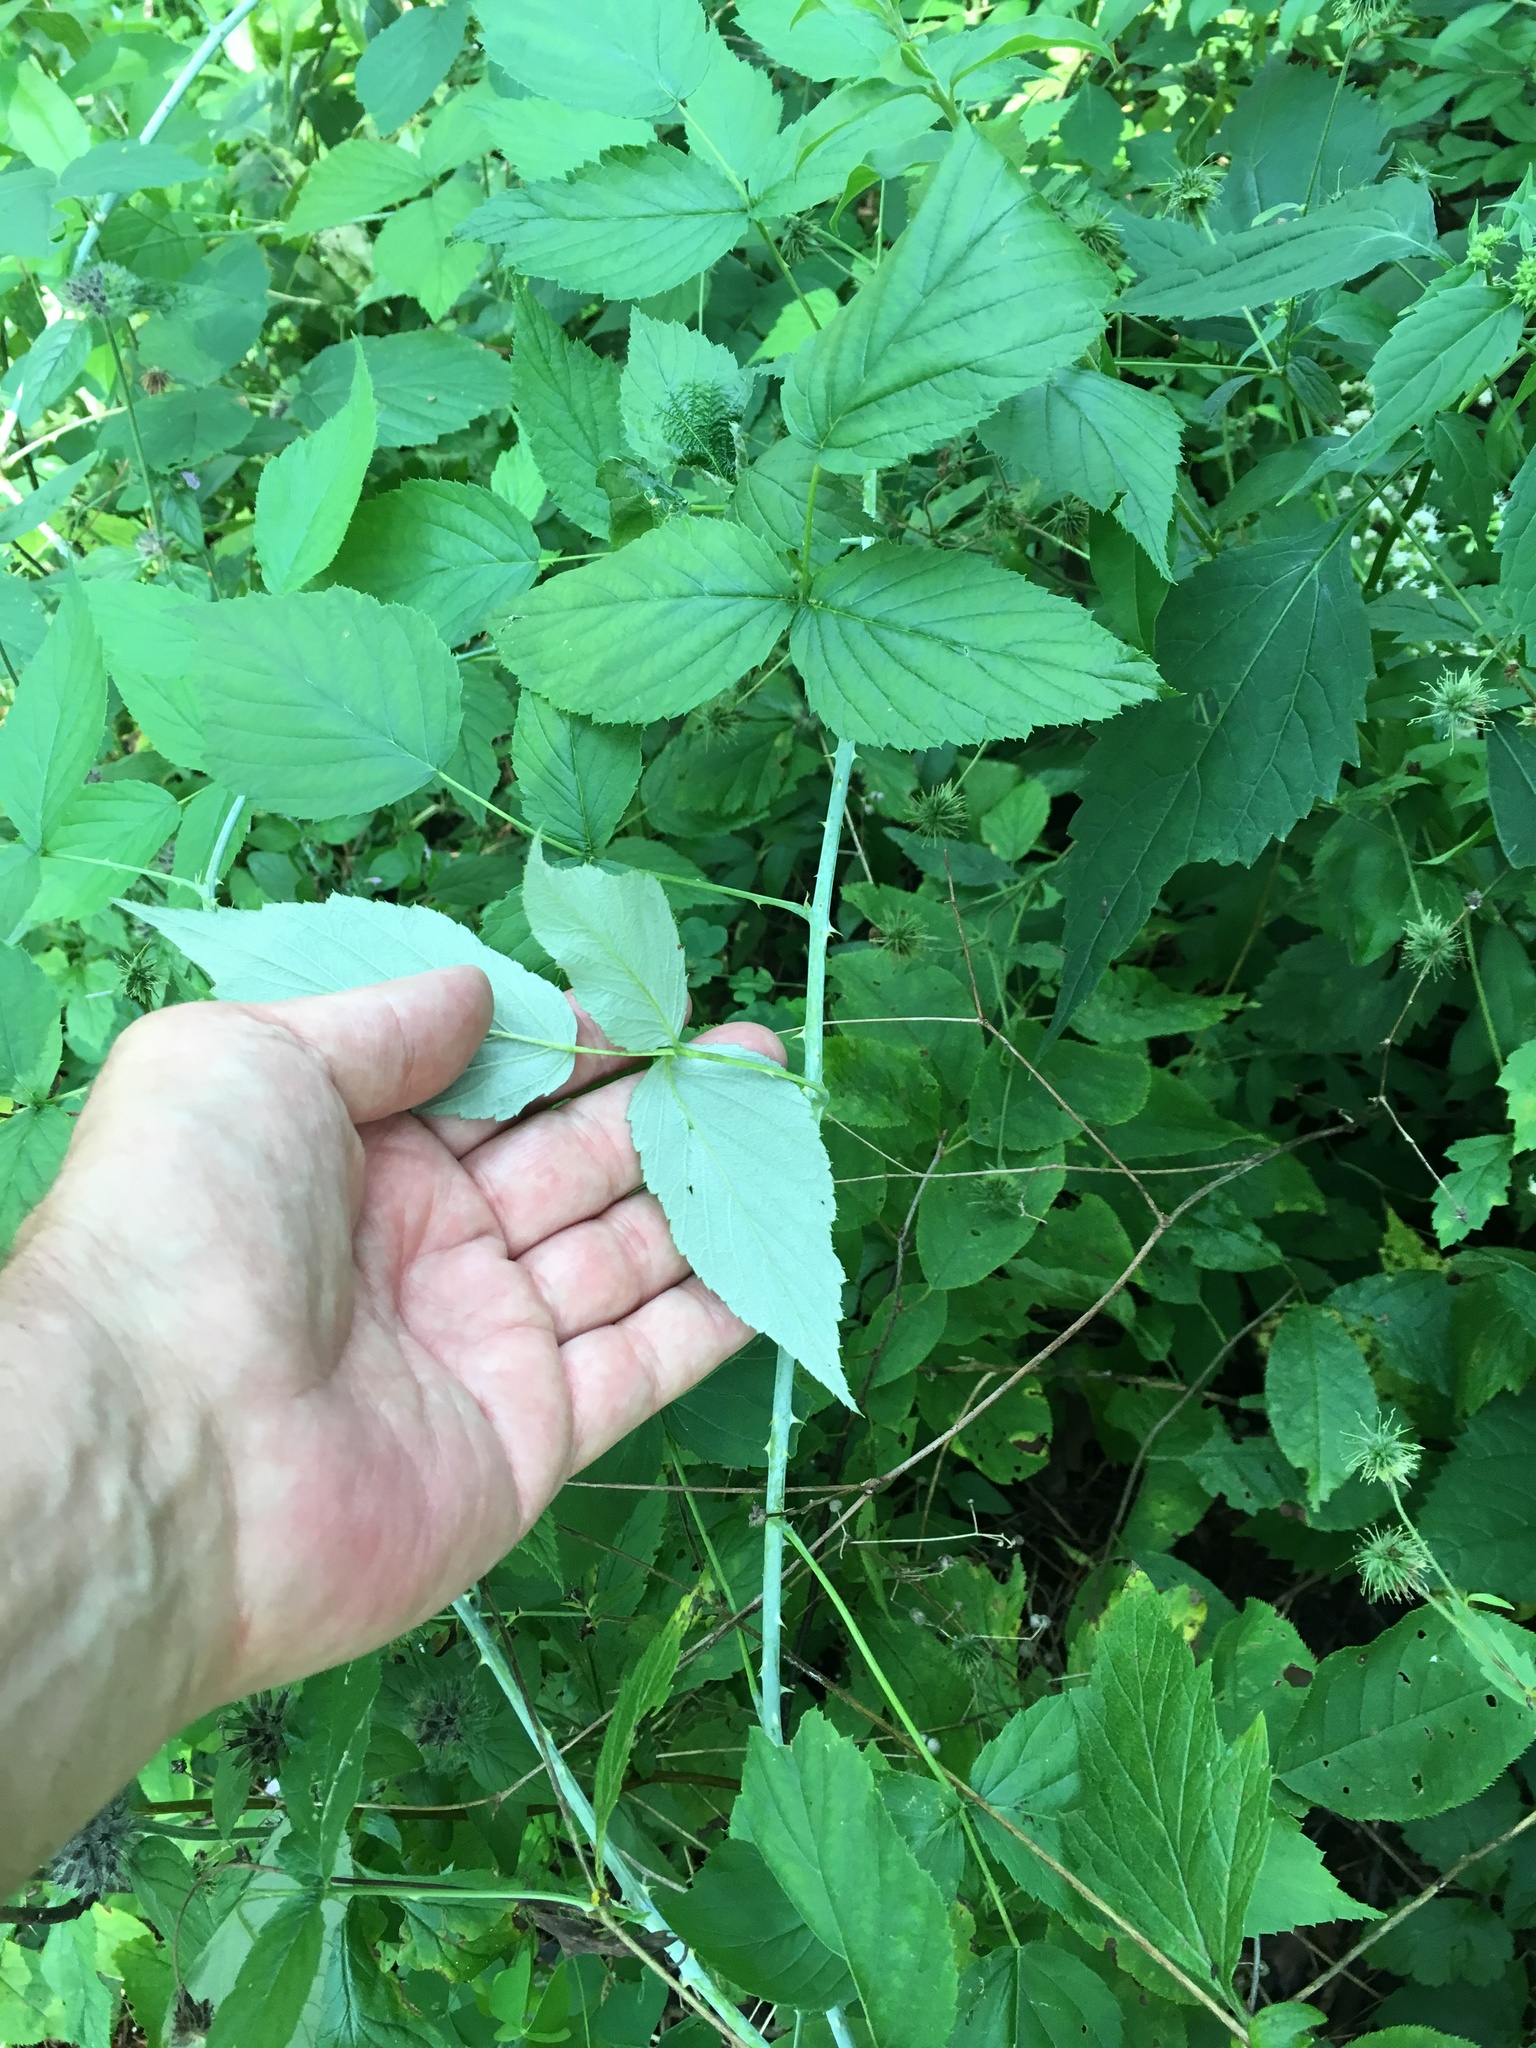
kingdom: Plantae
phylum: Tracheophyta
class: Magnoliopsida
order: Rosales
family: Rosaceae
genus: Rubus
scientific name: Rubus occidentalis
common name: Black raspberry
